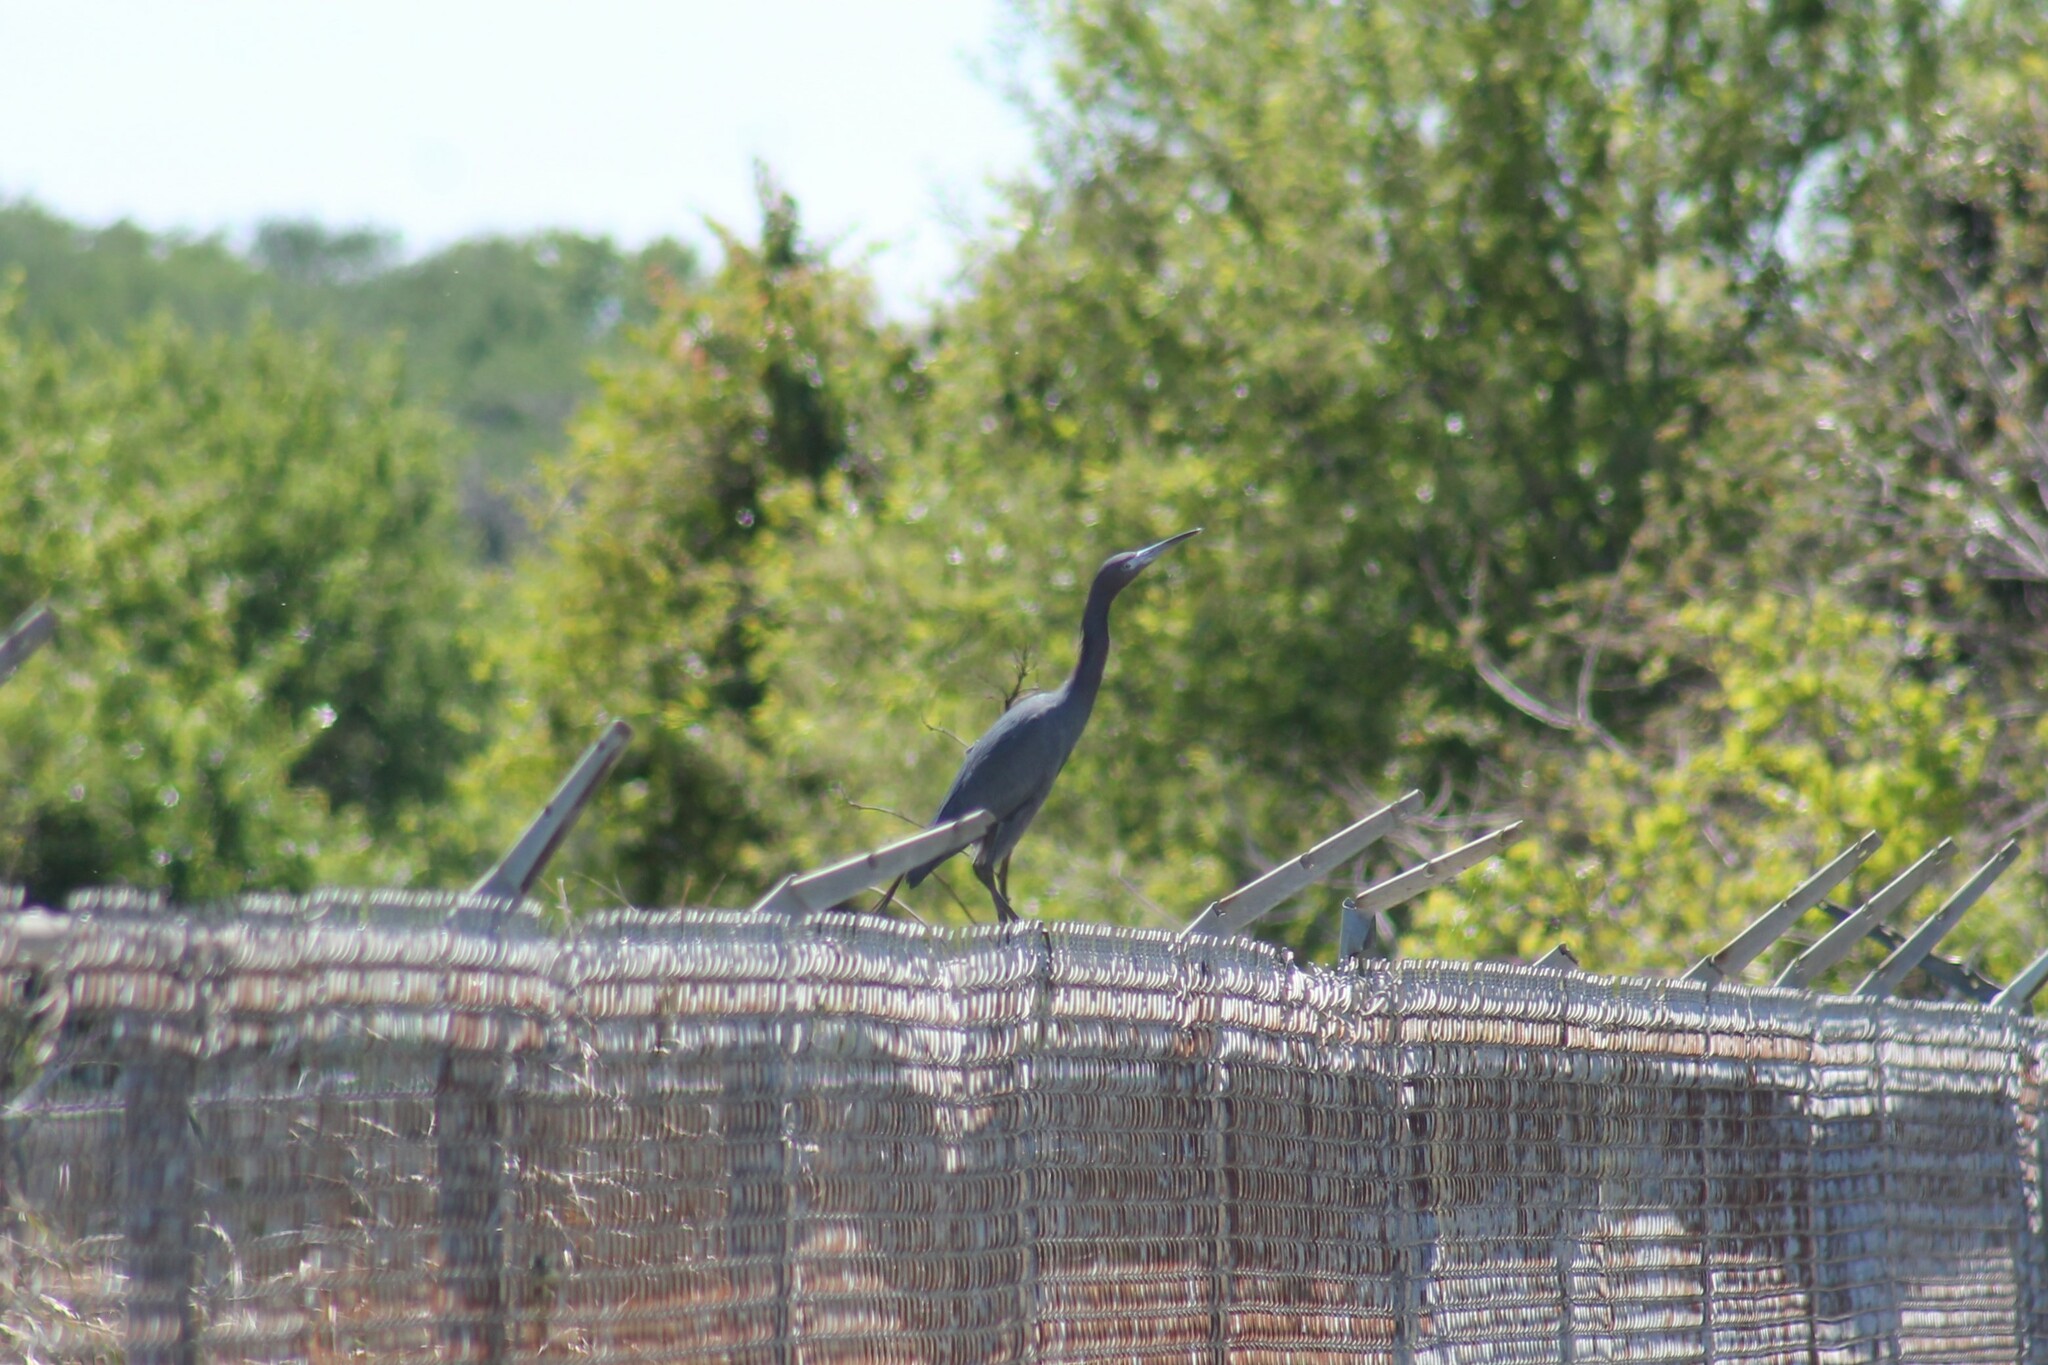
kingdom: Animalia
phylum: Chordata
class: Aves
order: Pelecaniformes
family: Ardeidae
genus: Egretta
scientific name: Egretta caerulea
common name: Little blue heron
